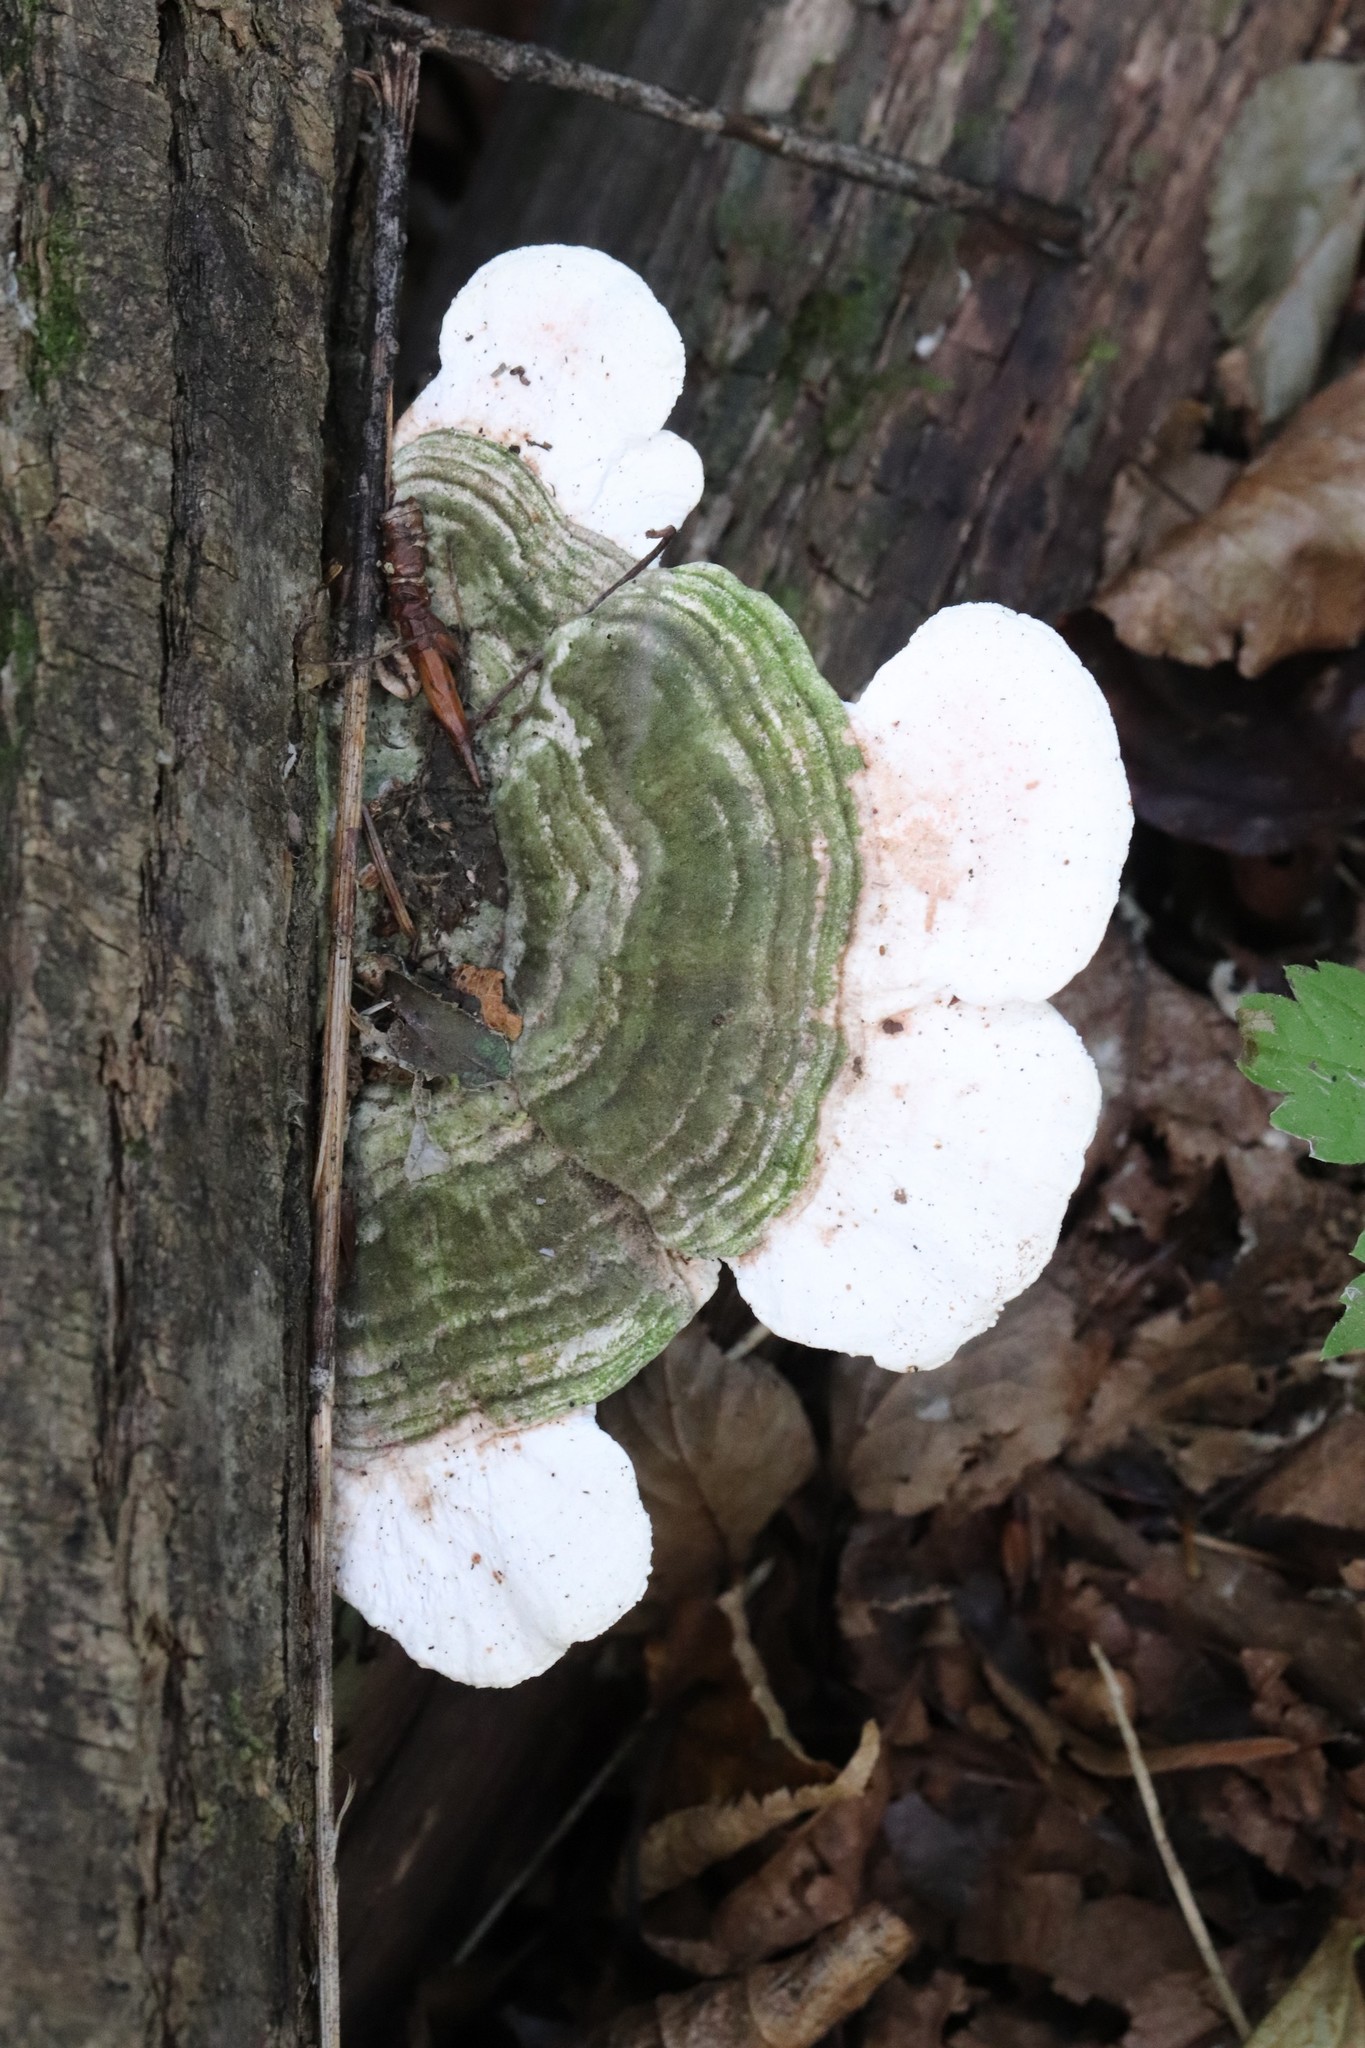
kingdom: Fungi
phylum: Basidiomycota
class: Agaricomycetes
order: Polyporales
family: Polyporaceae
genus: Trametes
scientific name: Trametes gibbosa
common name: Lumpy bracket
